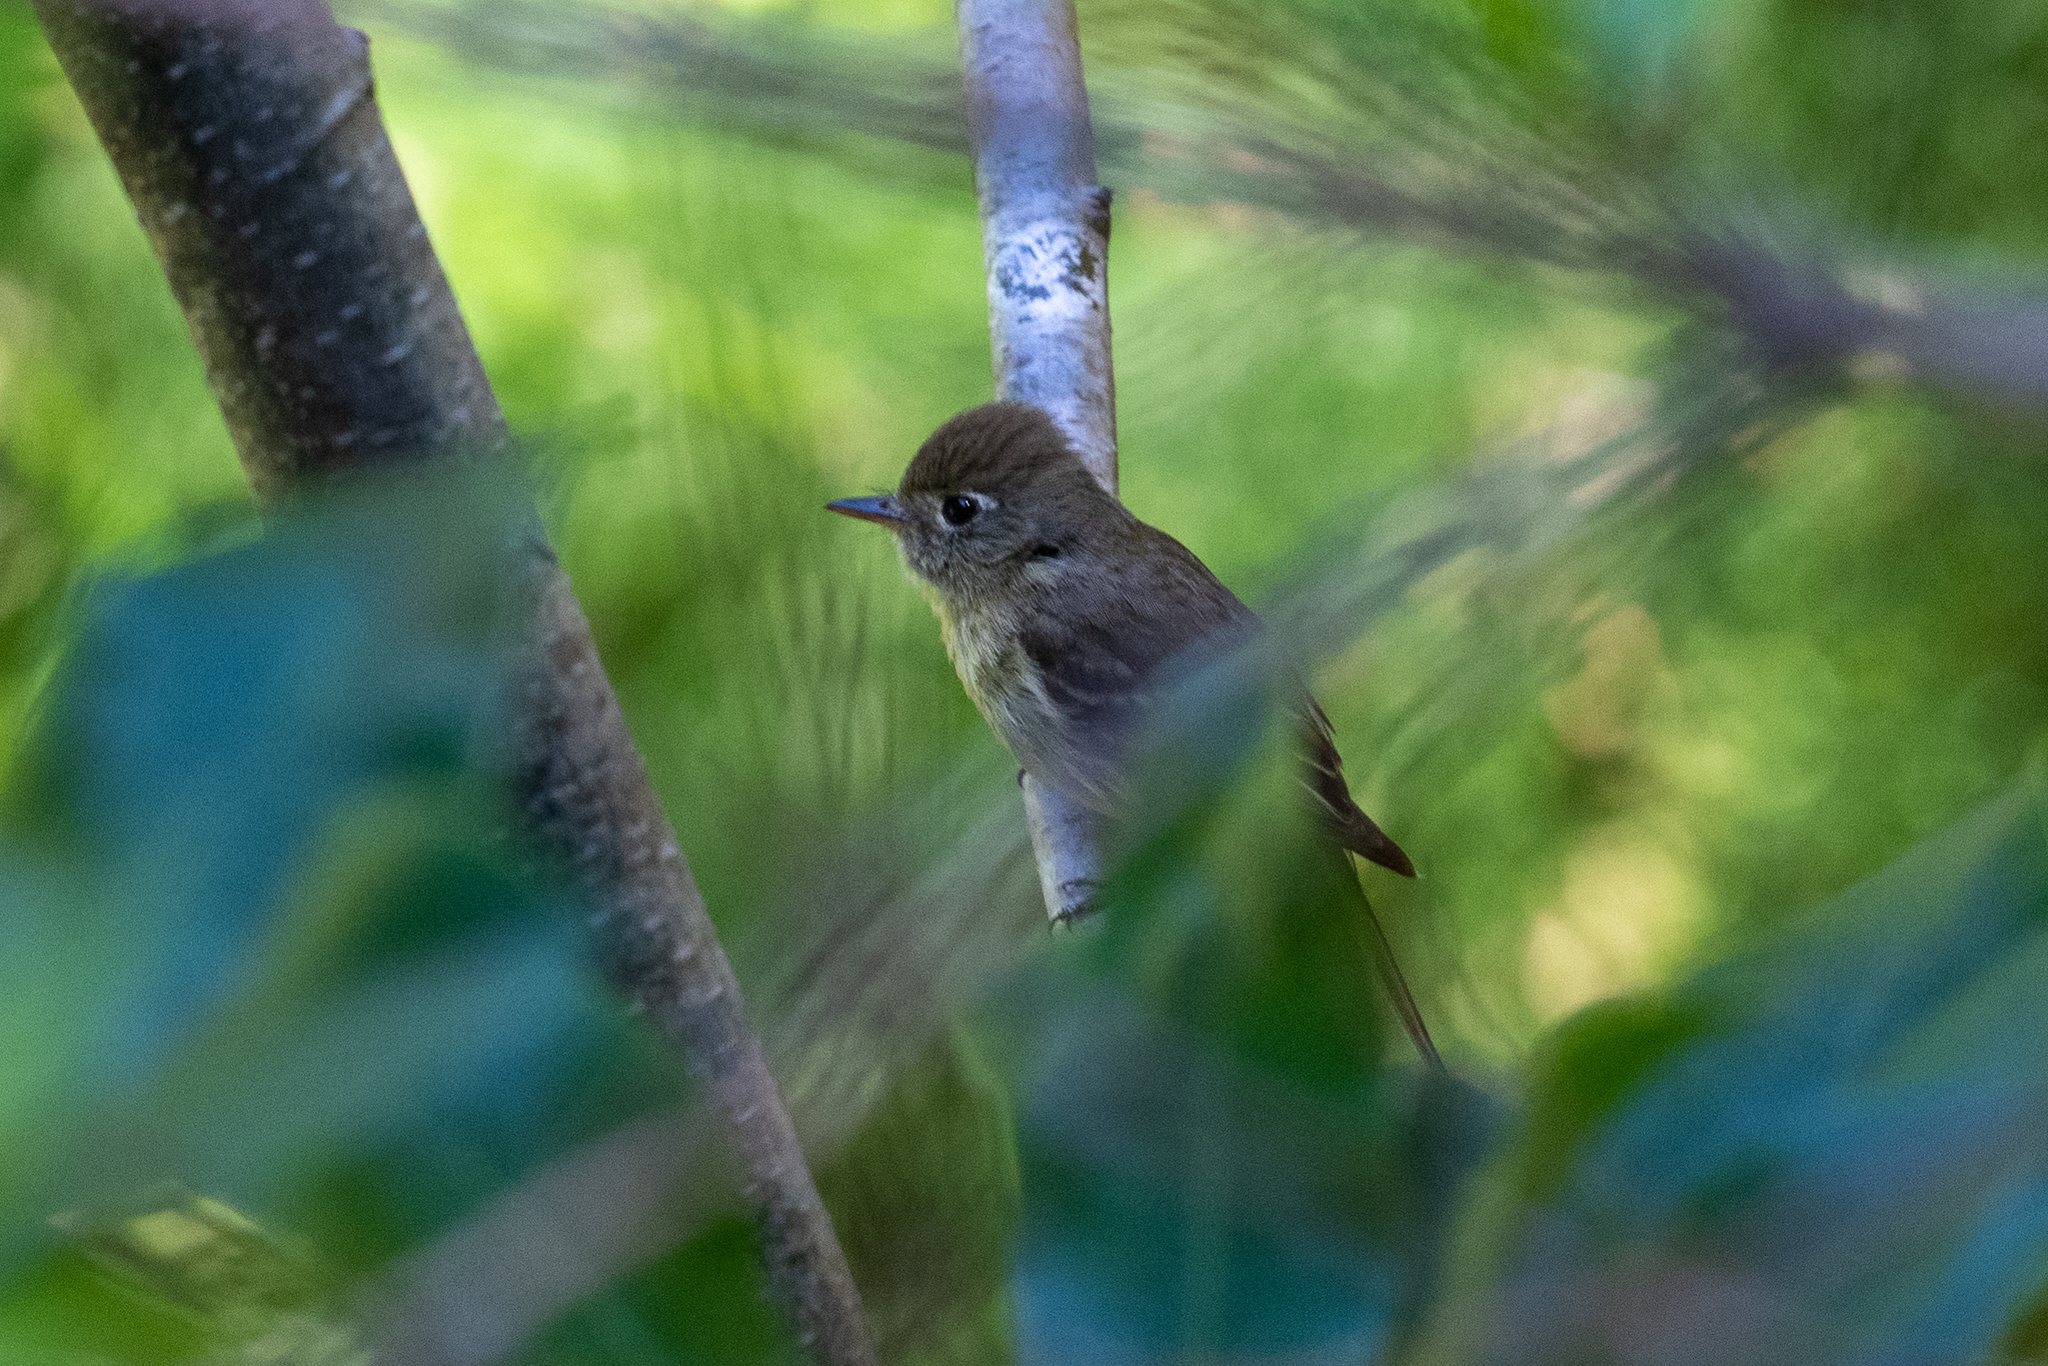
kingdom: Animalia
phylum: Chordata
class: Aves
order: Passeriformes
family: Tyrannidae
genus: Empidonax
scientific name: Empidonax difficilis
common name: Pacific-slope flycatcher
